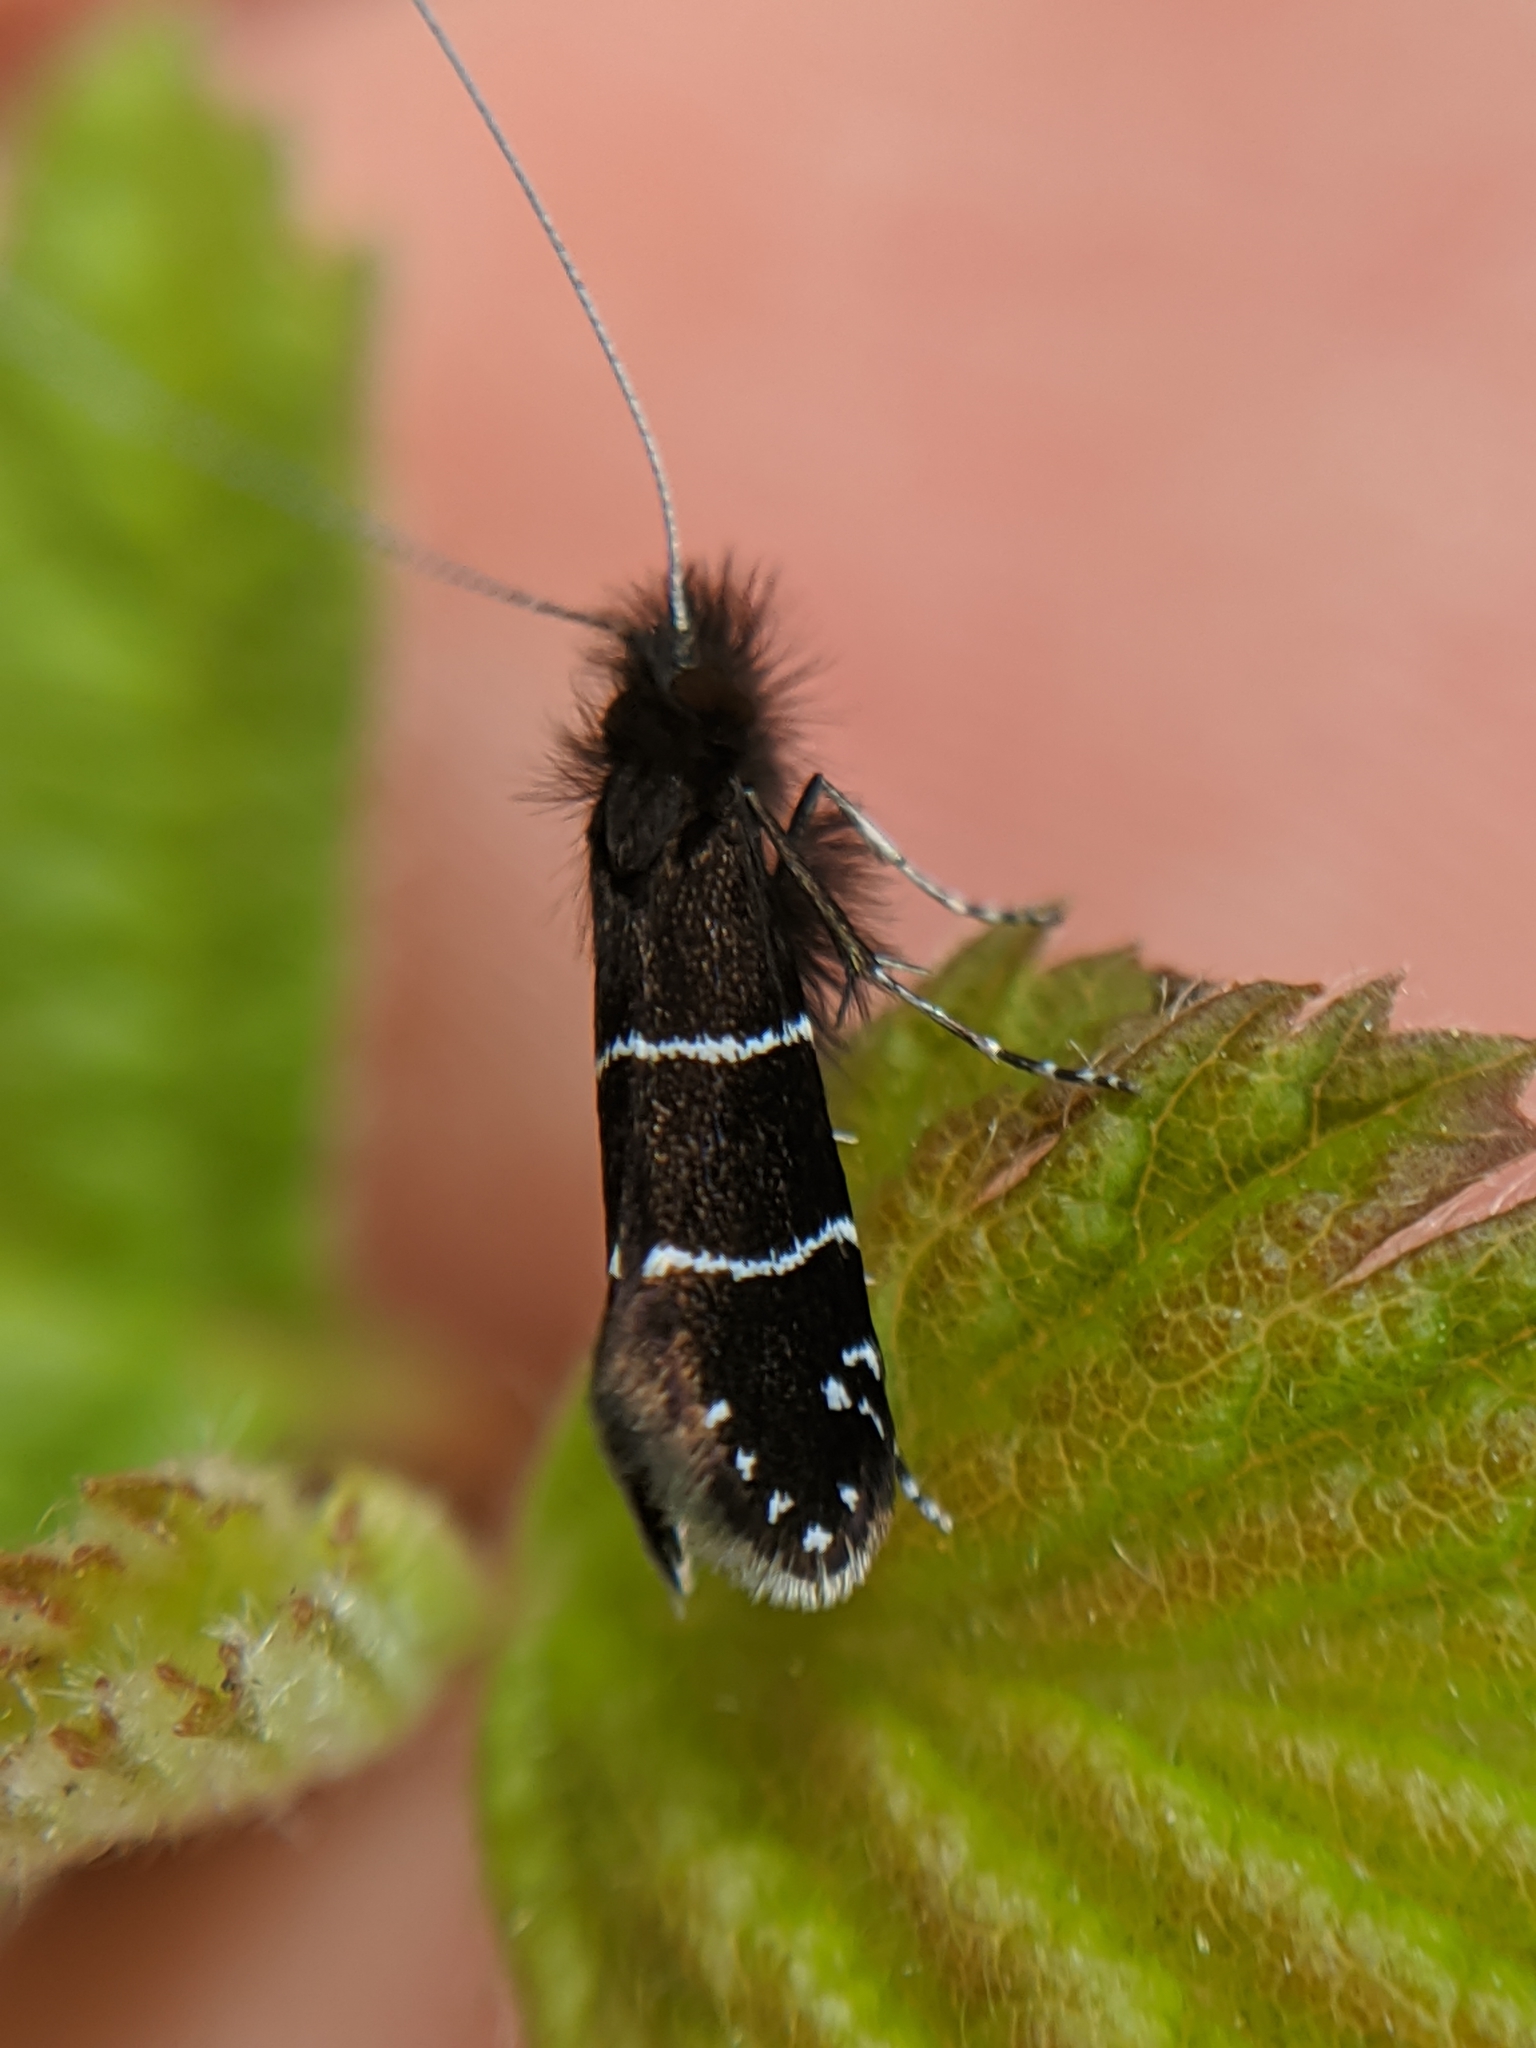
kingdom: Animalia
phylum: Arthropoda
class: Insecta
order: Lepidoptera
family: Adelidae
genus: Adela
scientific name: Adela septentrionella
